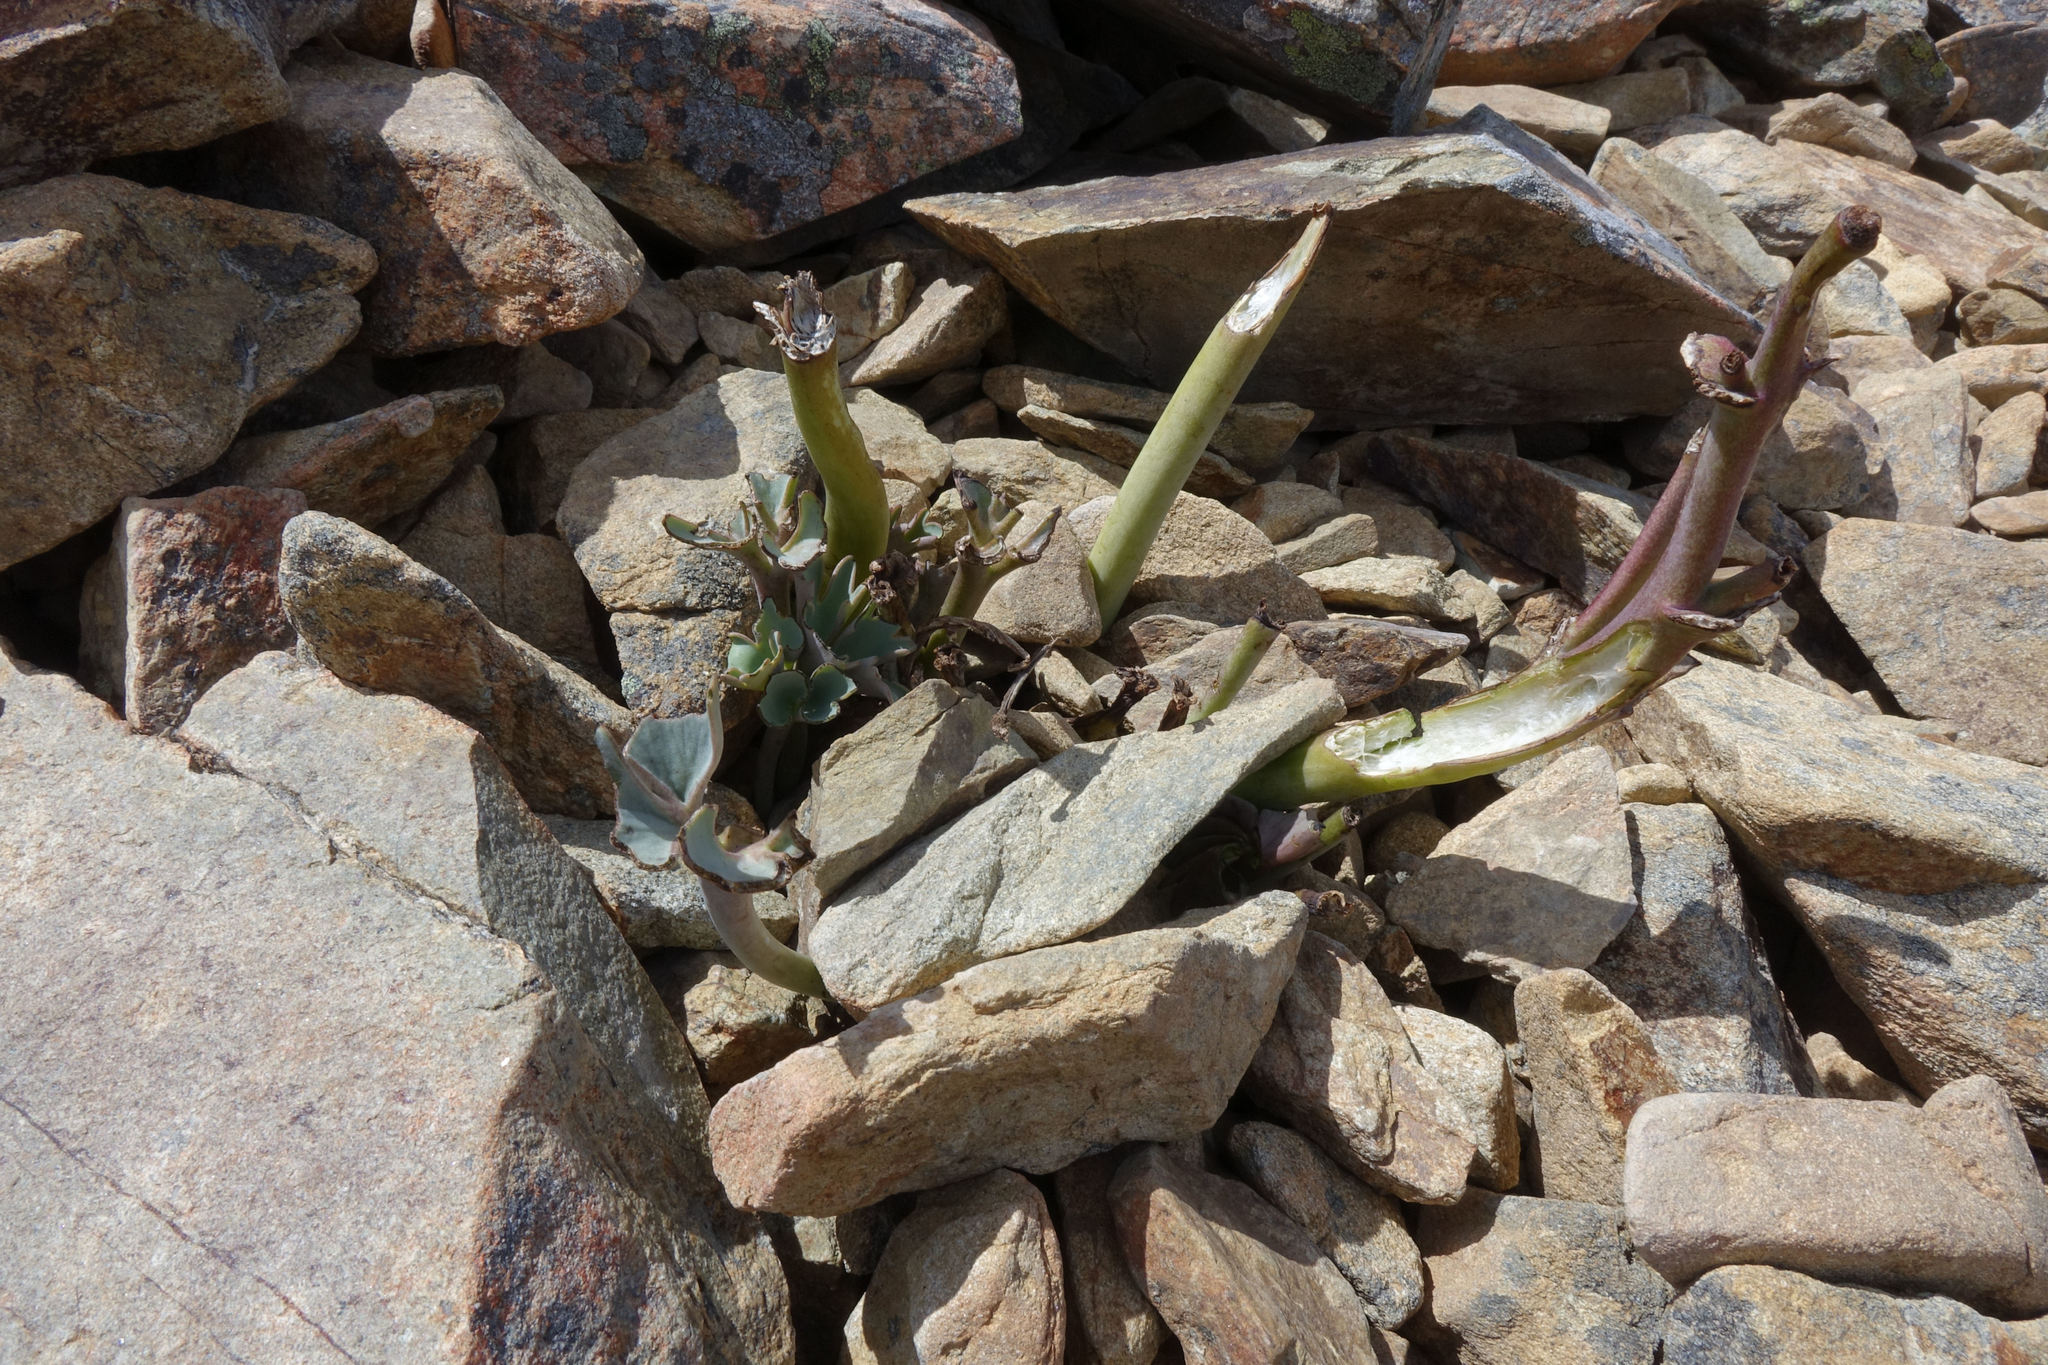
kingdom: Plantae
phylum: Tracheophyta
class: Magnoliopsida
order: Ranunculales
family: Ranunculaceae
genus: Ranunculus
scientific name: Ranunculus acraeus
